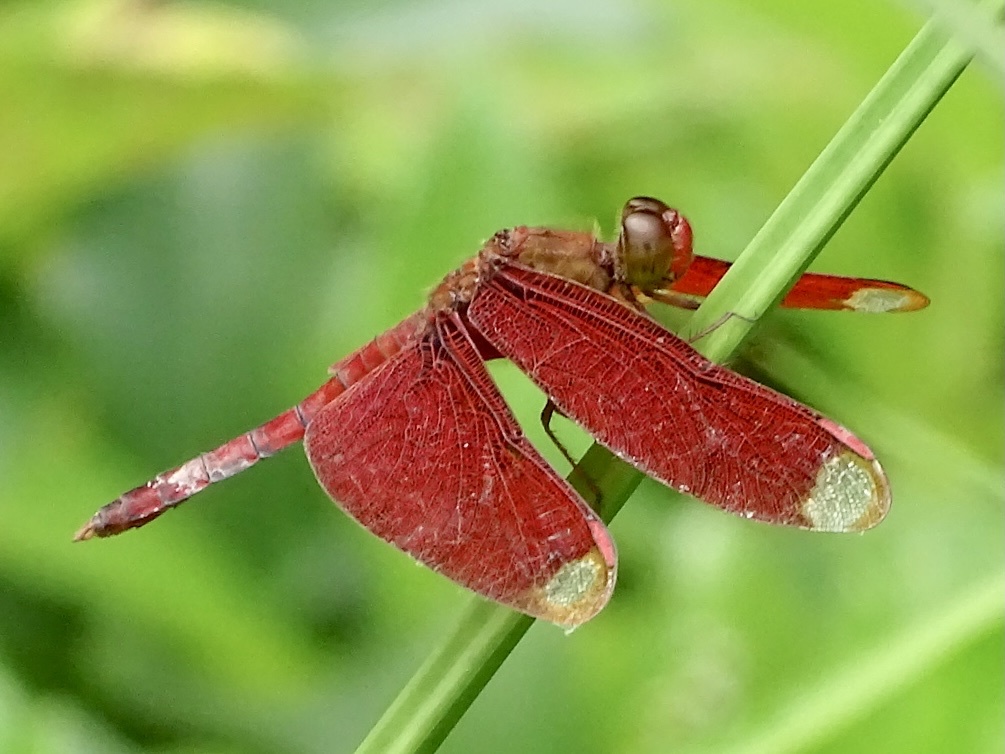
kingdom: Animalia
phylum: Arthropoda
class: Insecta
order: Odonata
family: Libellulidae
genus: Neurothemis
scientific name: Neurothemis fulvia
